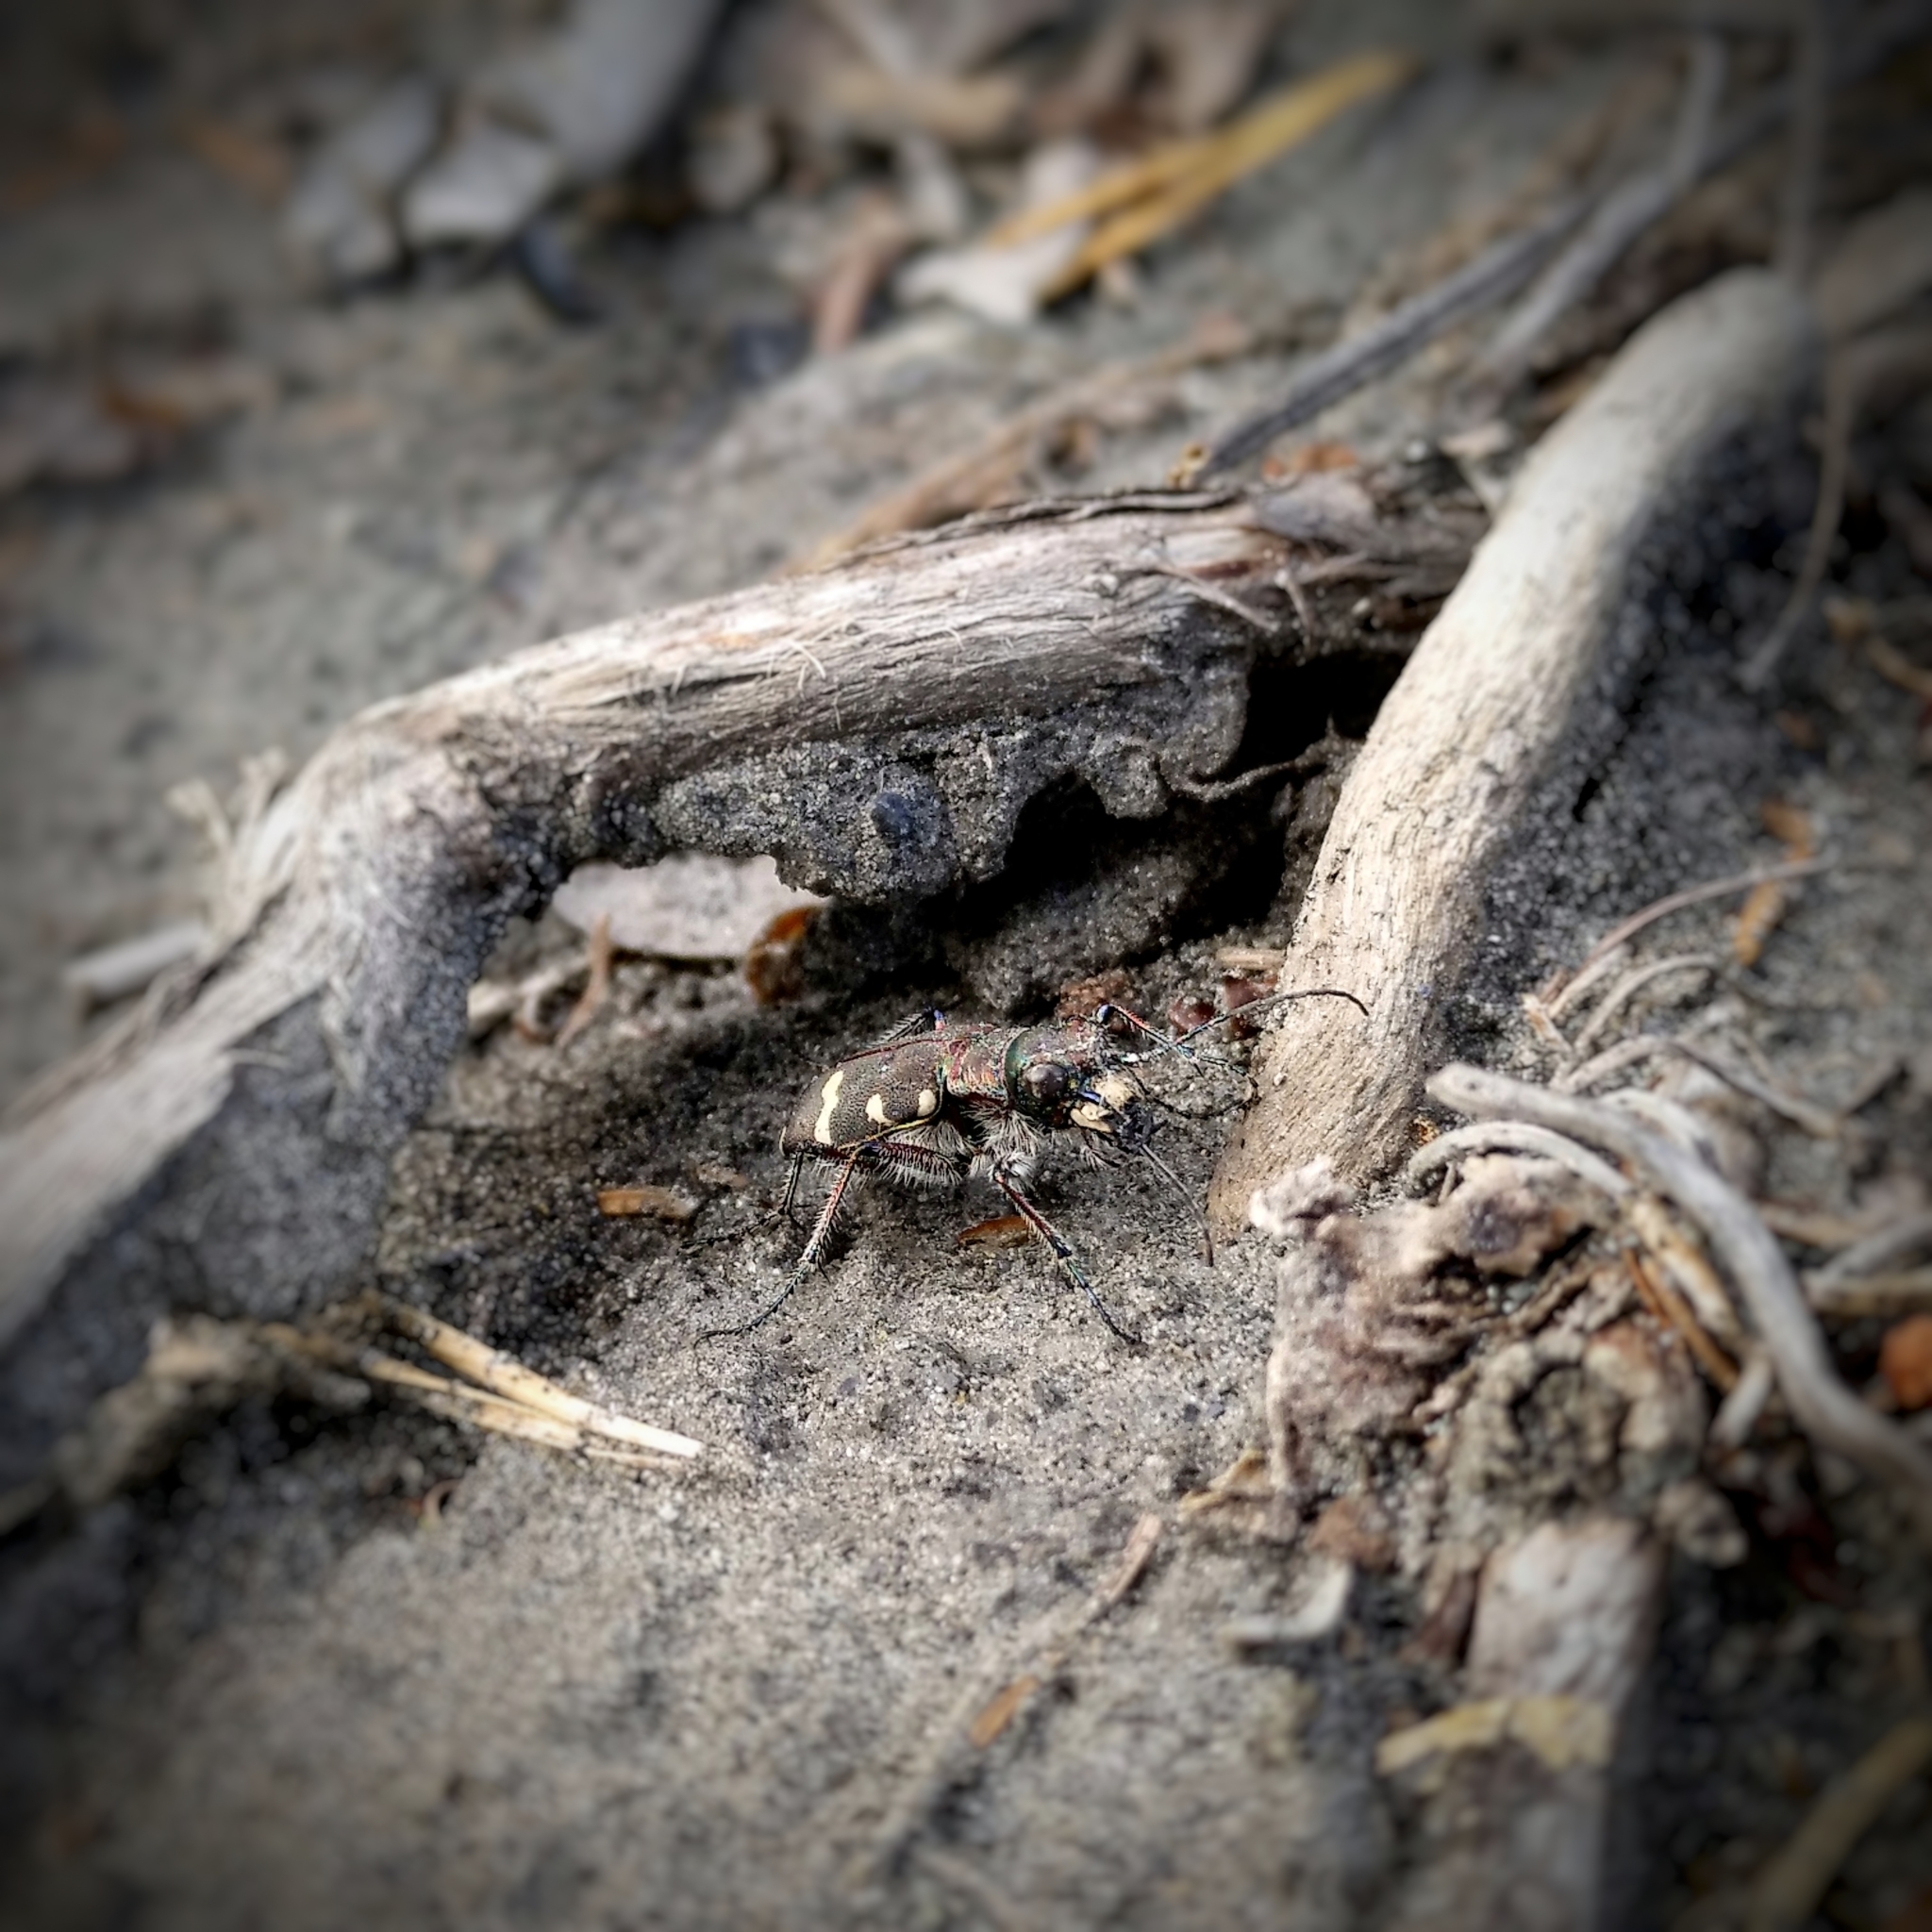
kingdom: Animalia
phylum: Arthropoda
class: Insecta
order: Coleoptera
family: Carabidae
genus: Cicindela
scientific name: Cicindela hybrida
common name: Northern dune tiger beetle
